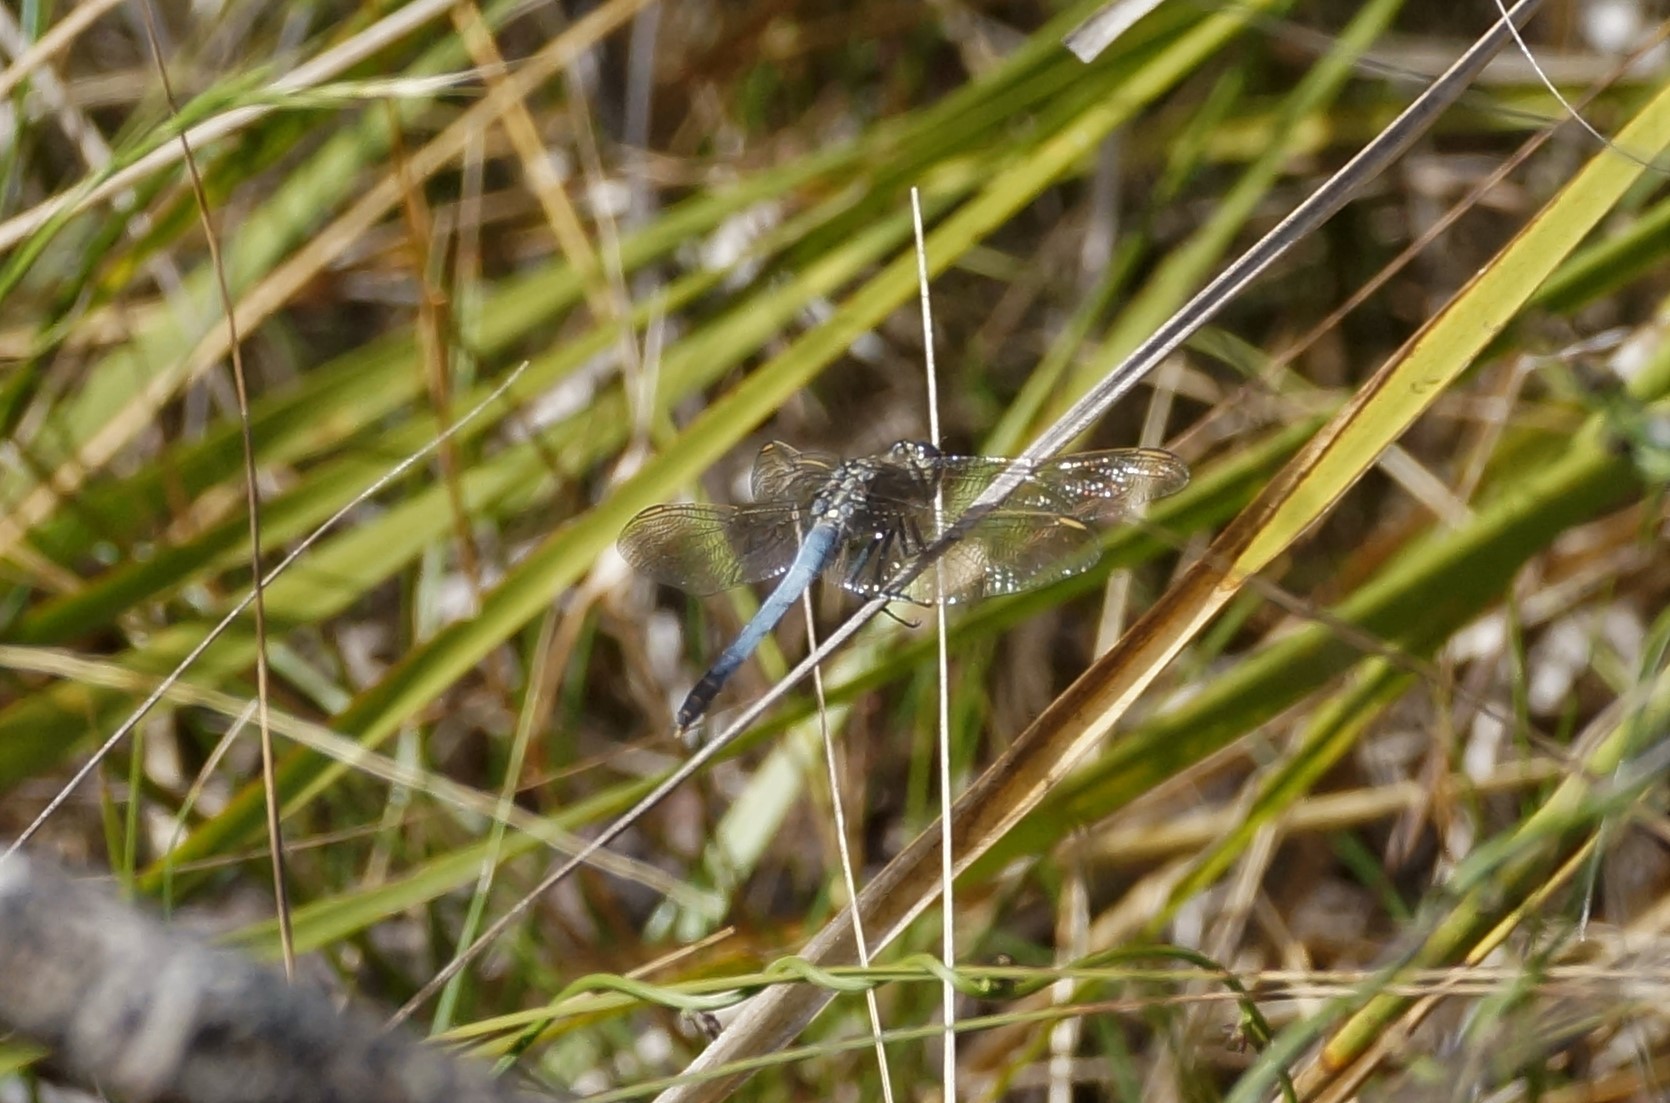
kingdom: Animalia
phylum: Arthropoda
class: Insecta
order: Odonata
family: Libellulidae
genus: Orthetrum
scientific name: Orthetrum caledonicum
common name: Blue skimmer
